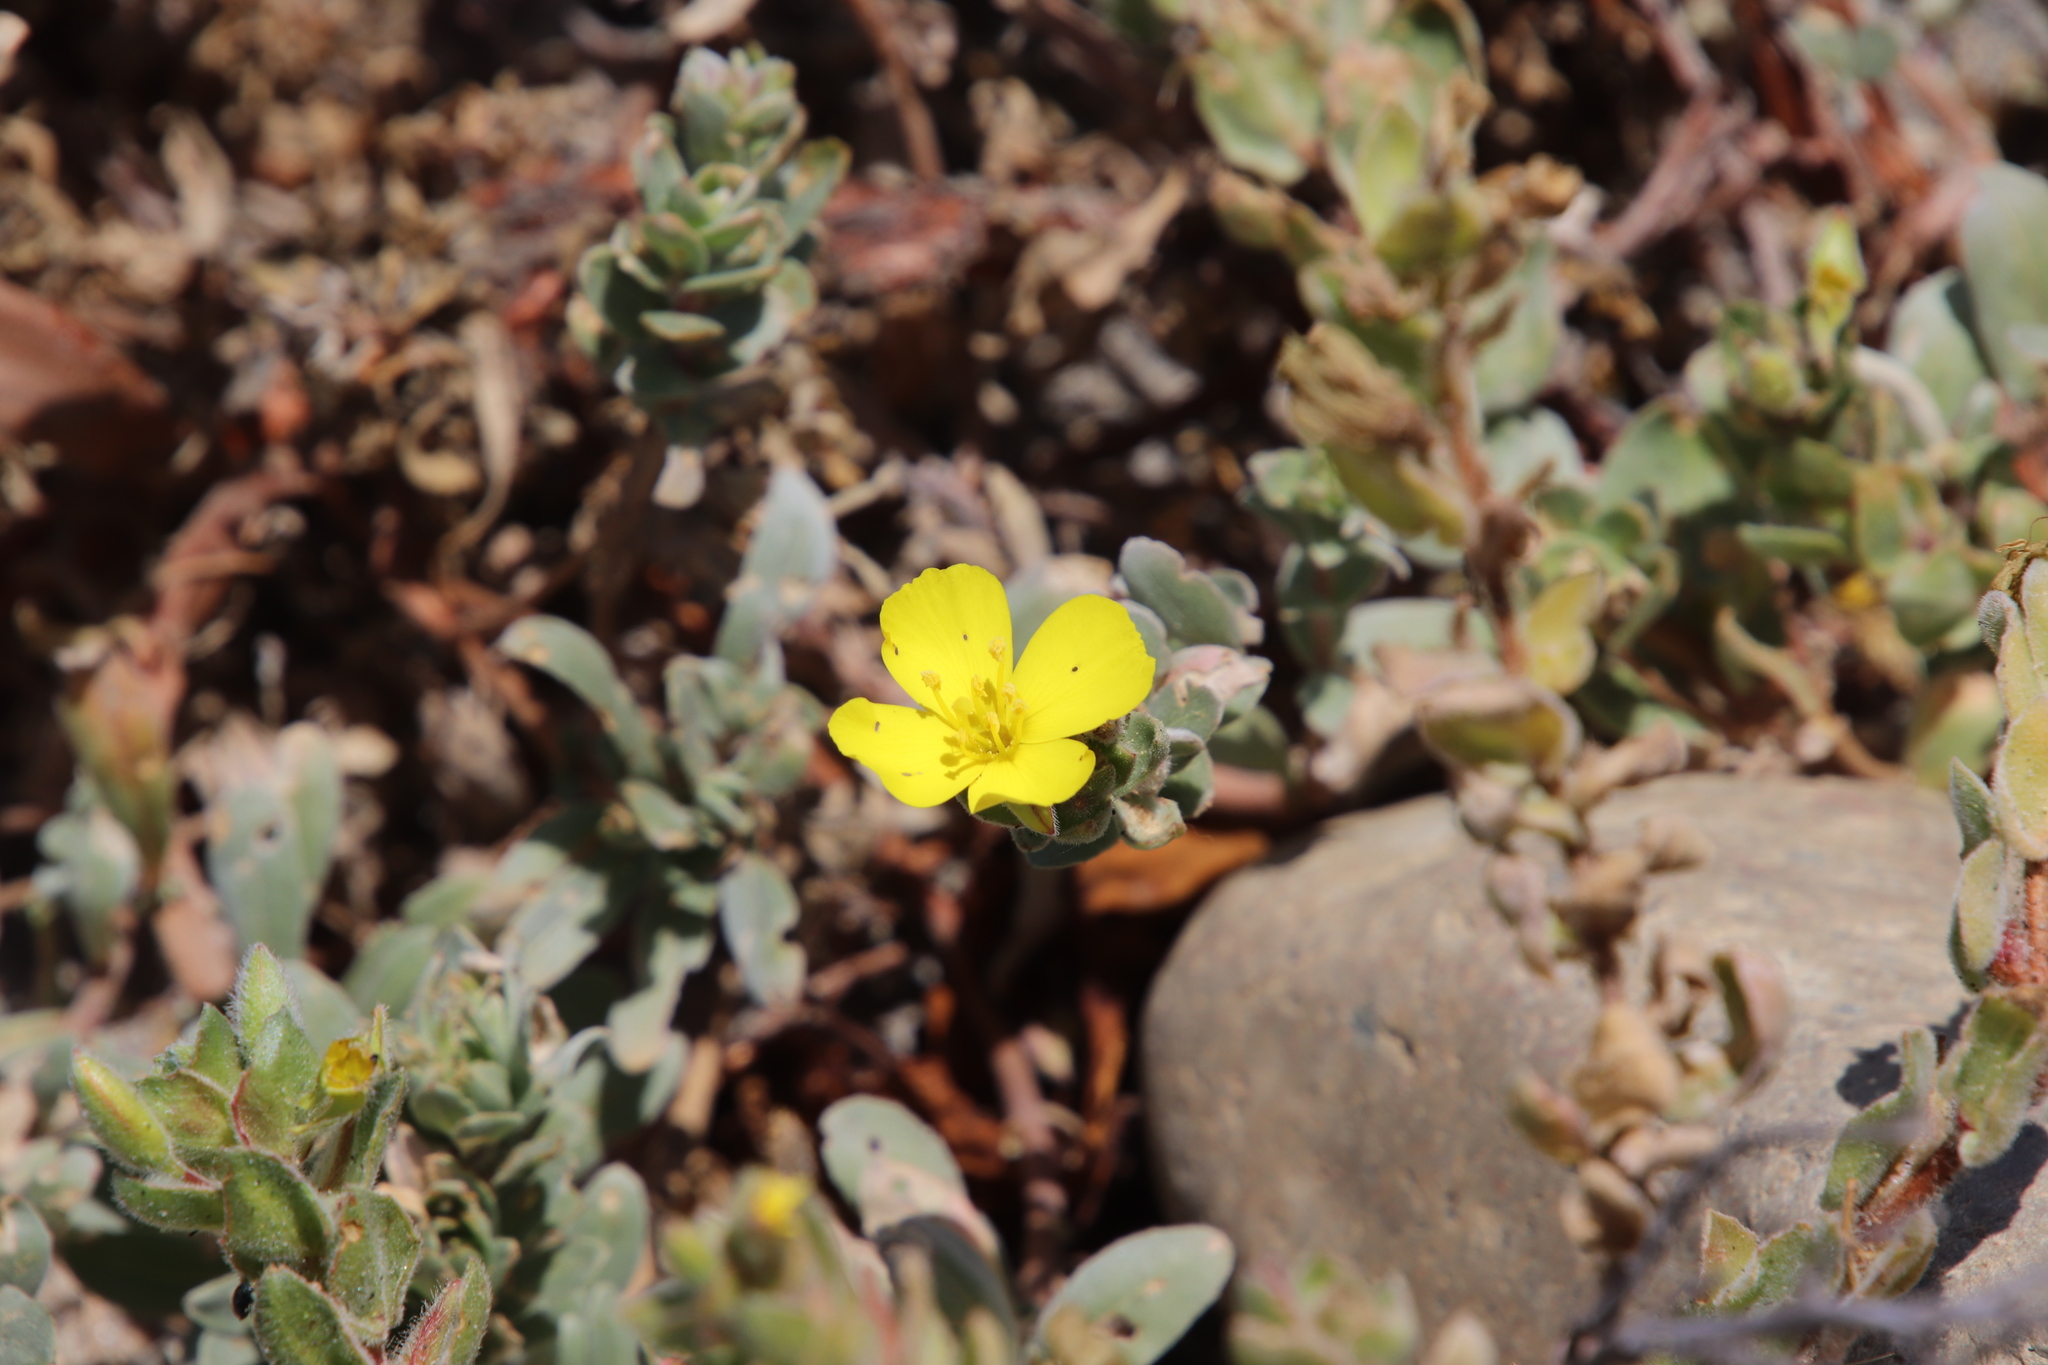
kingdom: Plantae
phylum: Tracheophyta
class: Magnoliopsida
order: Myrtales
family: Onagraceae
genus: Camissoniopsis
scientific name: Camissoniopsis cheiranthifolia
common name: Beach suncup
